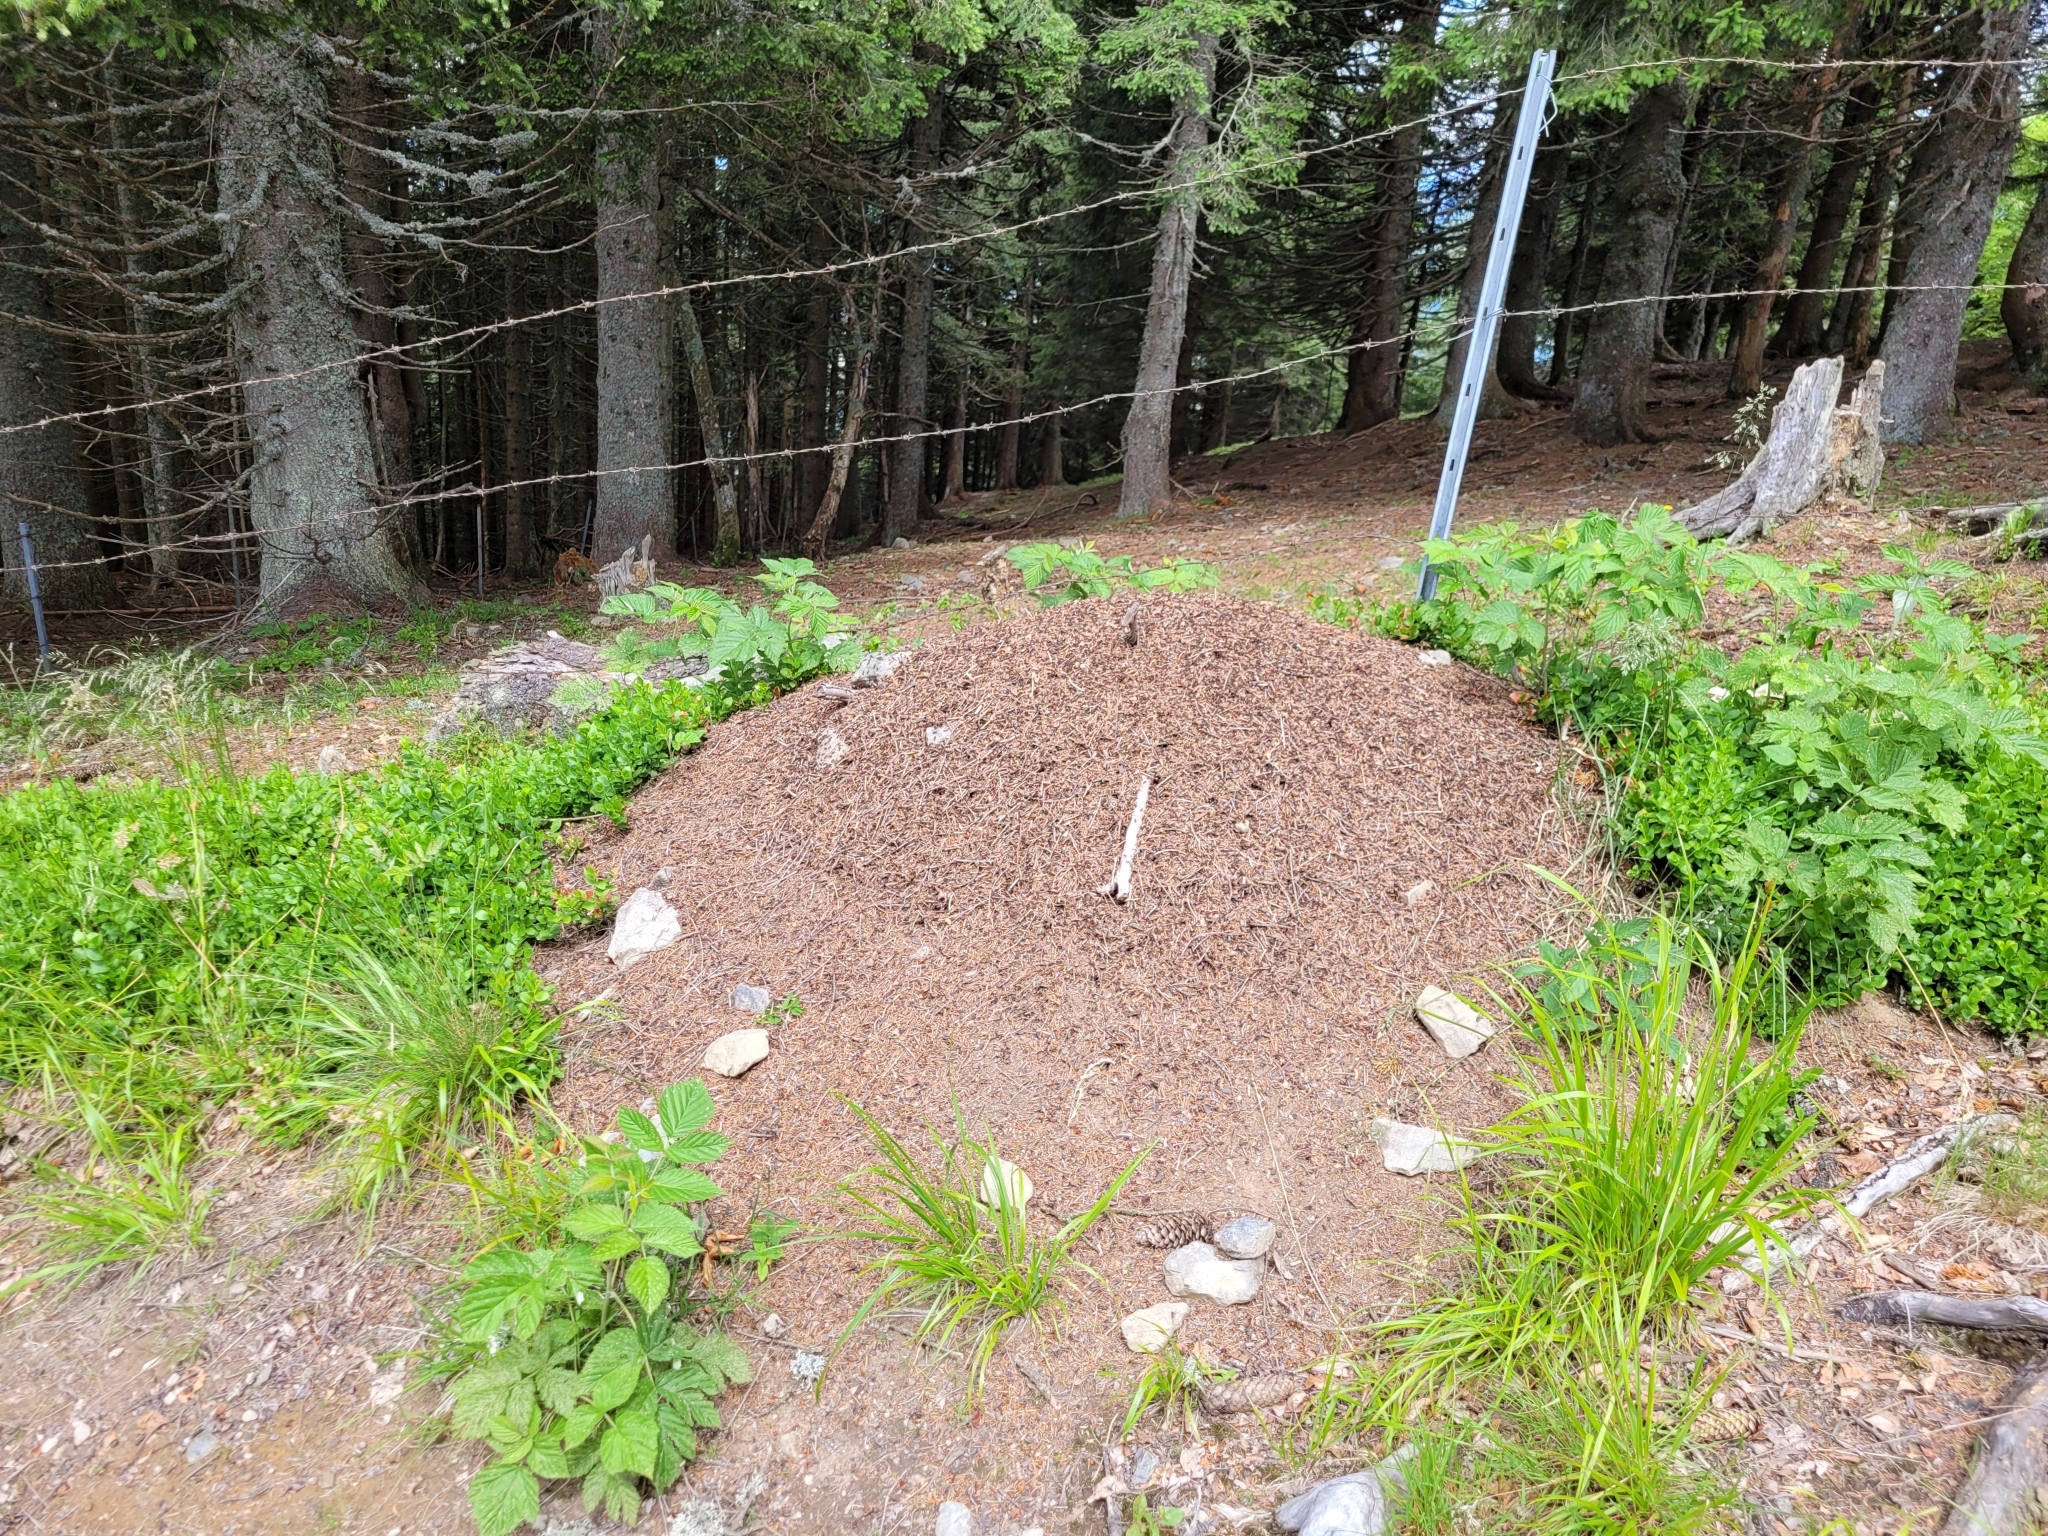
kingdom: Animalia
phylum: Arthropoda
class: Insecta
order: Hymenoptera
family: Formicidae
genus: Formica
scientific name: Formica
